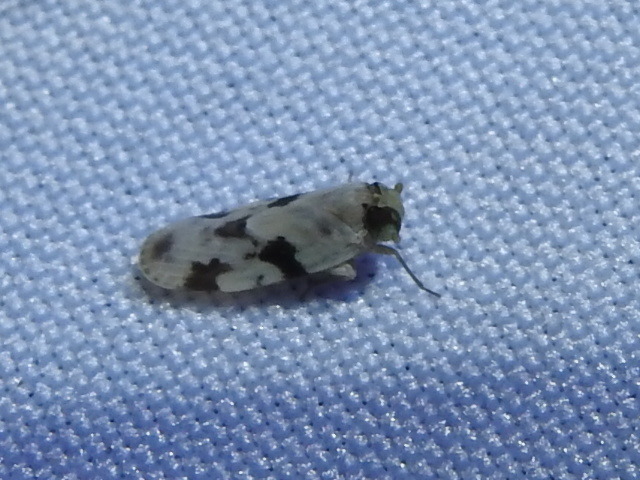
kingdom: Animalia
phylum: Arthropoda
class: Insecta
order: Hemiptera
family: Achilidae
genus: Spino
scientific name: Spino notatus
